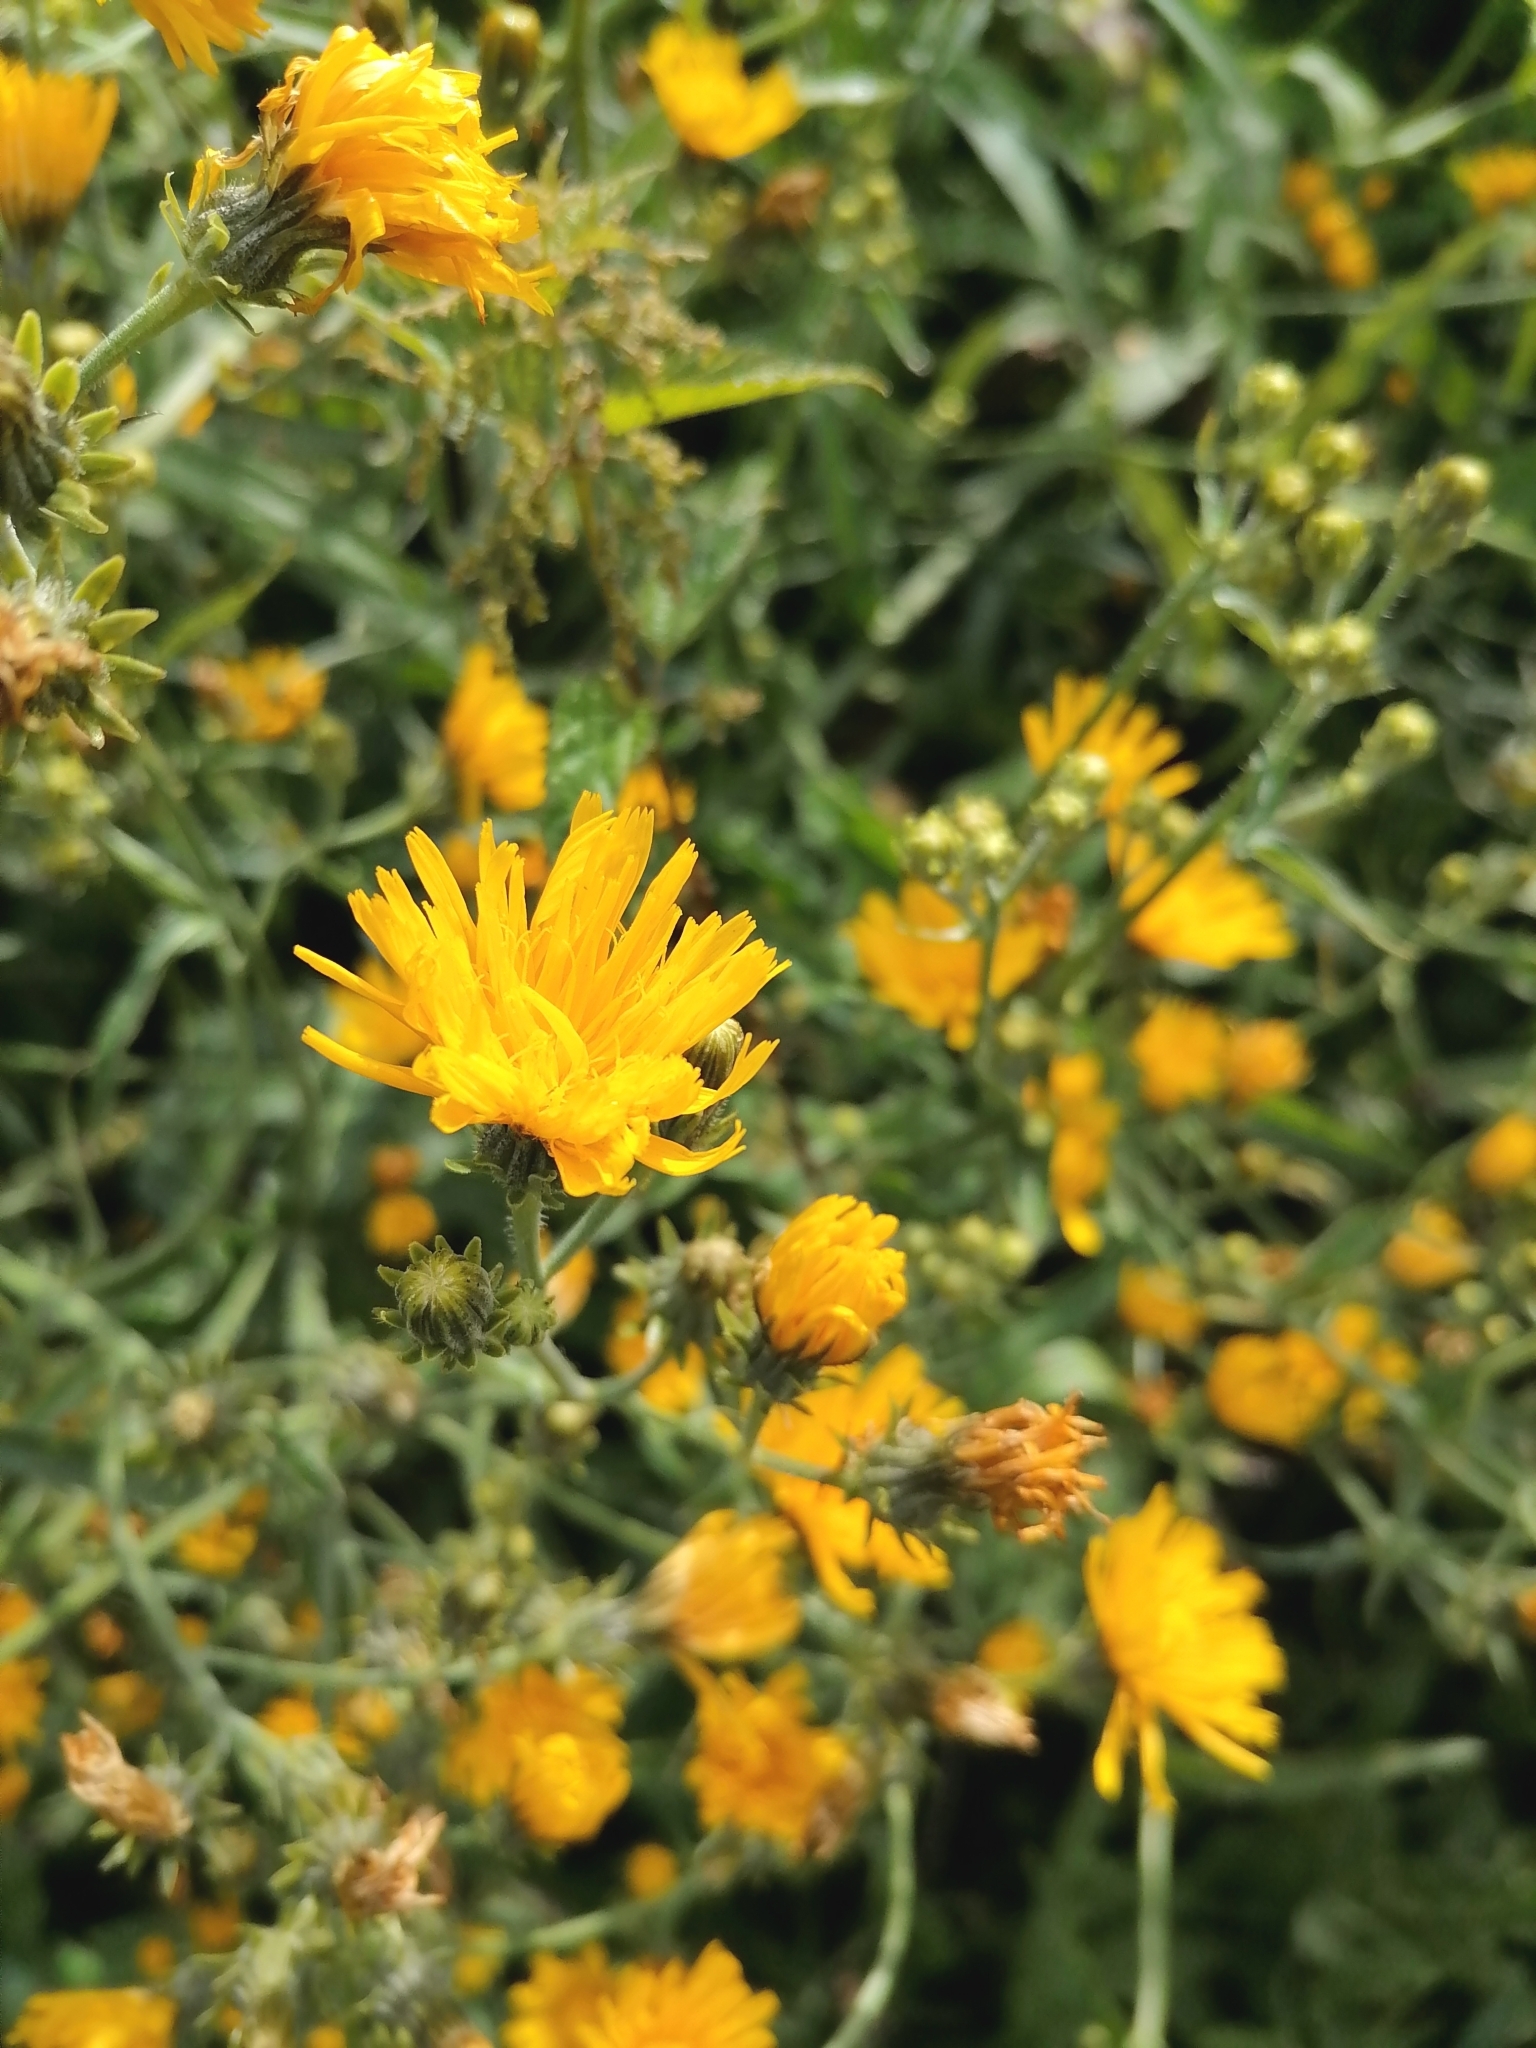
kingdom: Plantae
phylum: Tracheophyta
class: Magnoliopsida
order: Asterales
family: Asteraceae
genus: Picris
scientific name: Picris hieracioides
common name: Hawkweed oxtongue
